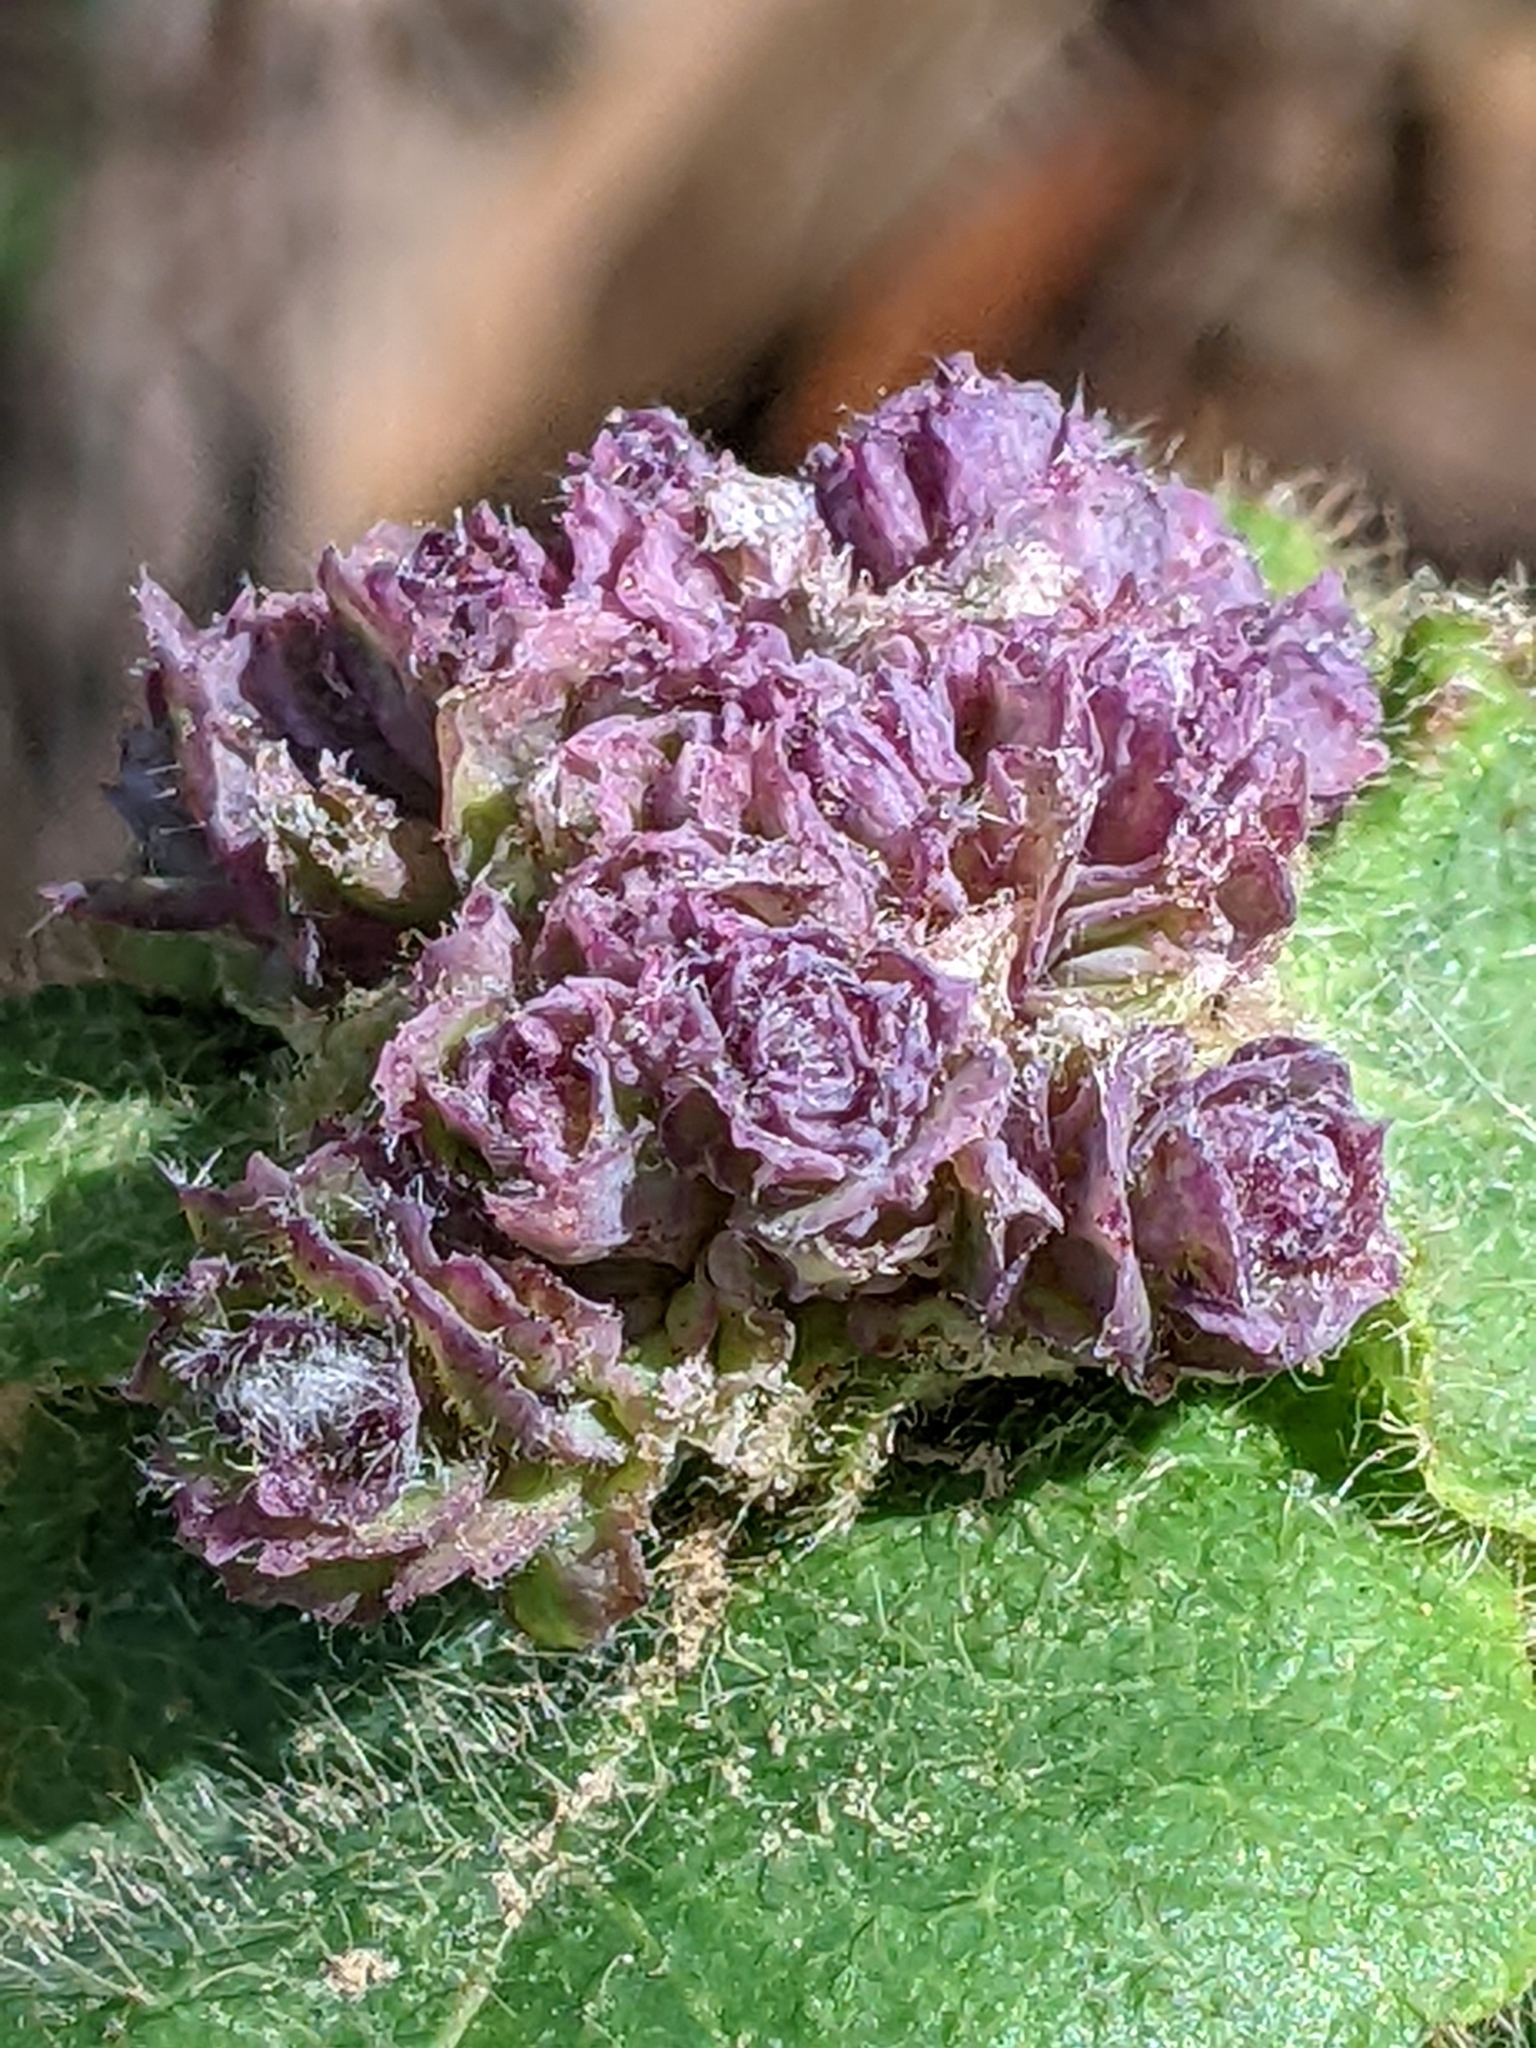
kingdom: Animalia
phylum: Arthropoda
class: Insecta
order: Diptera
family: Cecidomyiidae
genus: Lonicerae
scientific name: Lonicerae russoi
